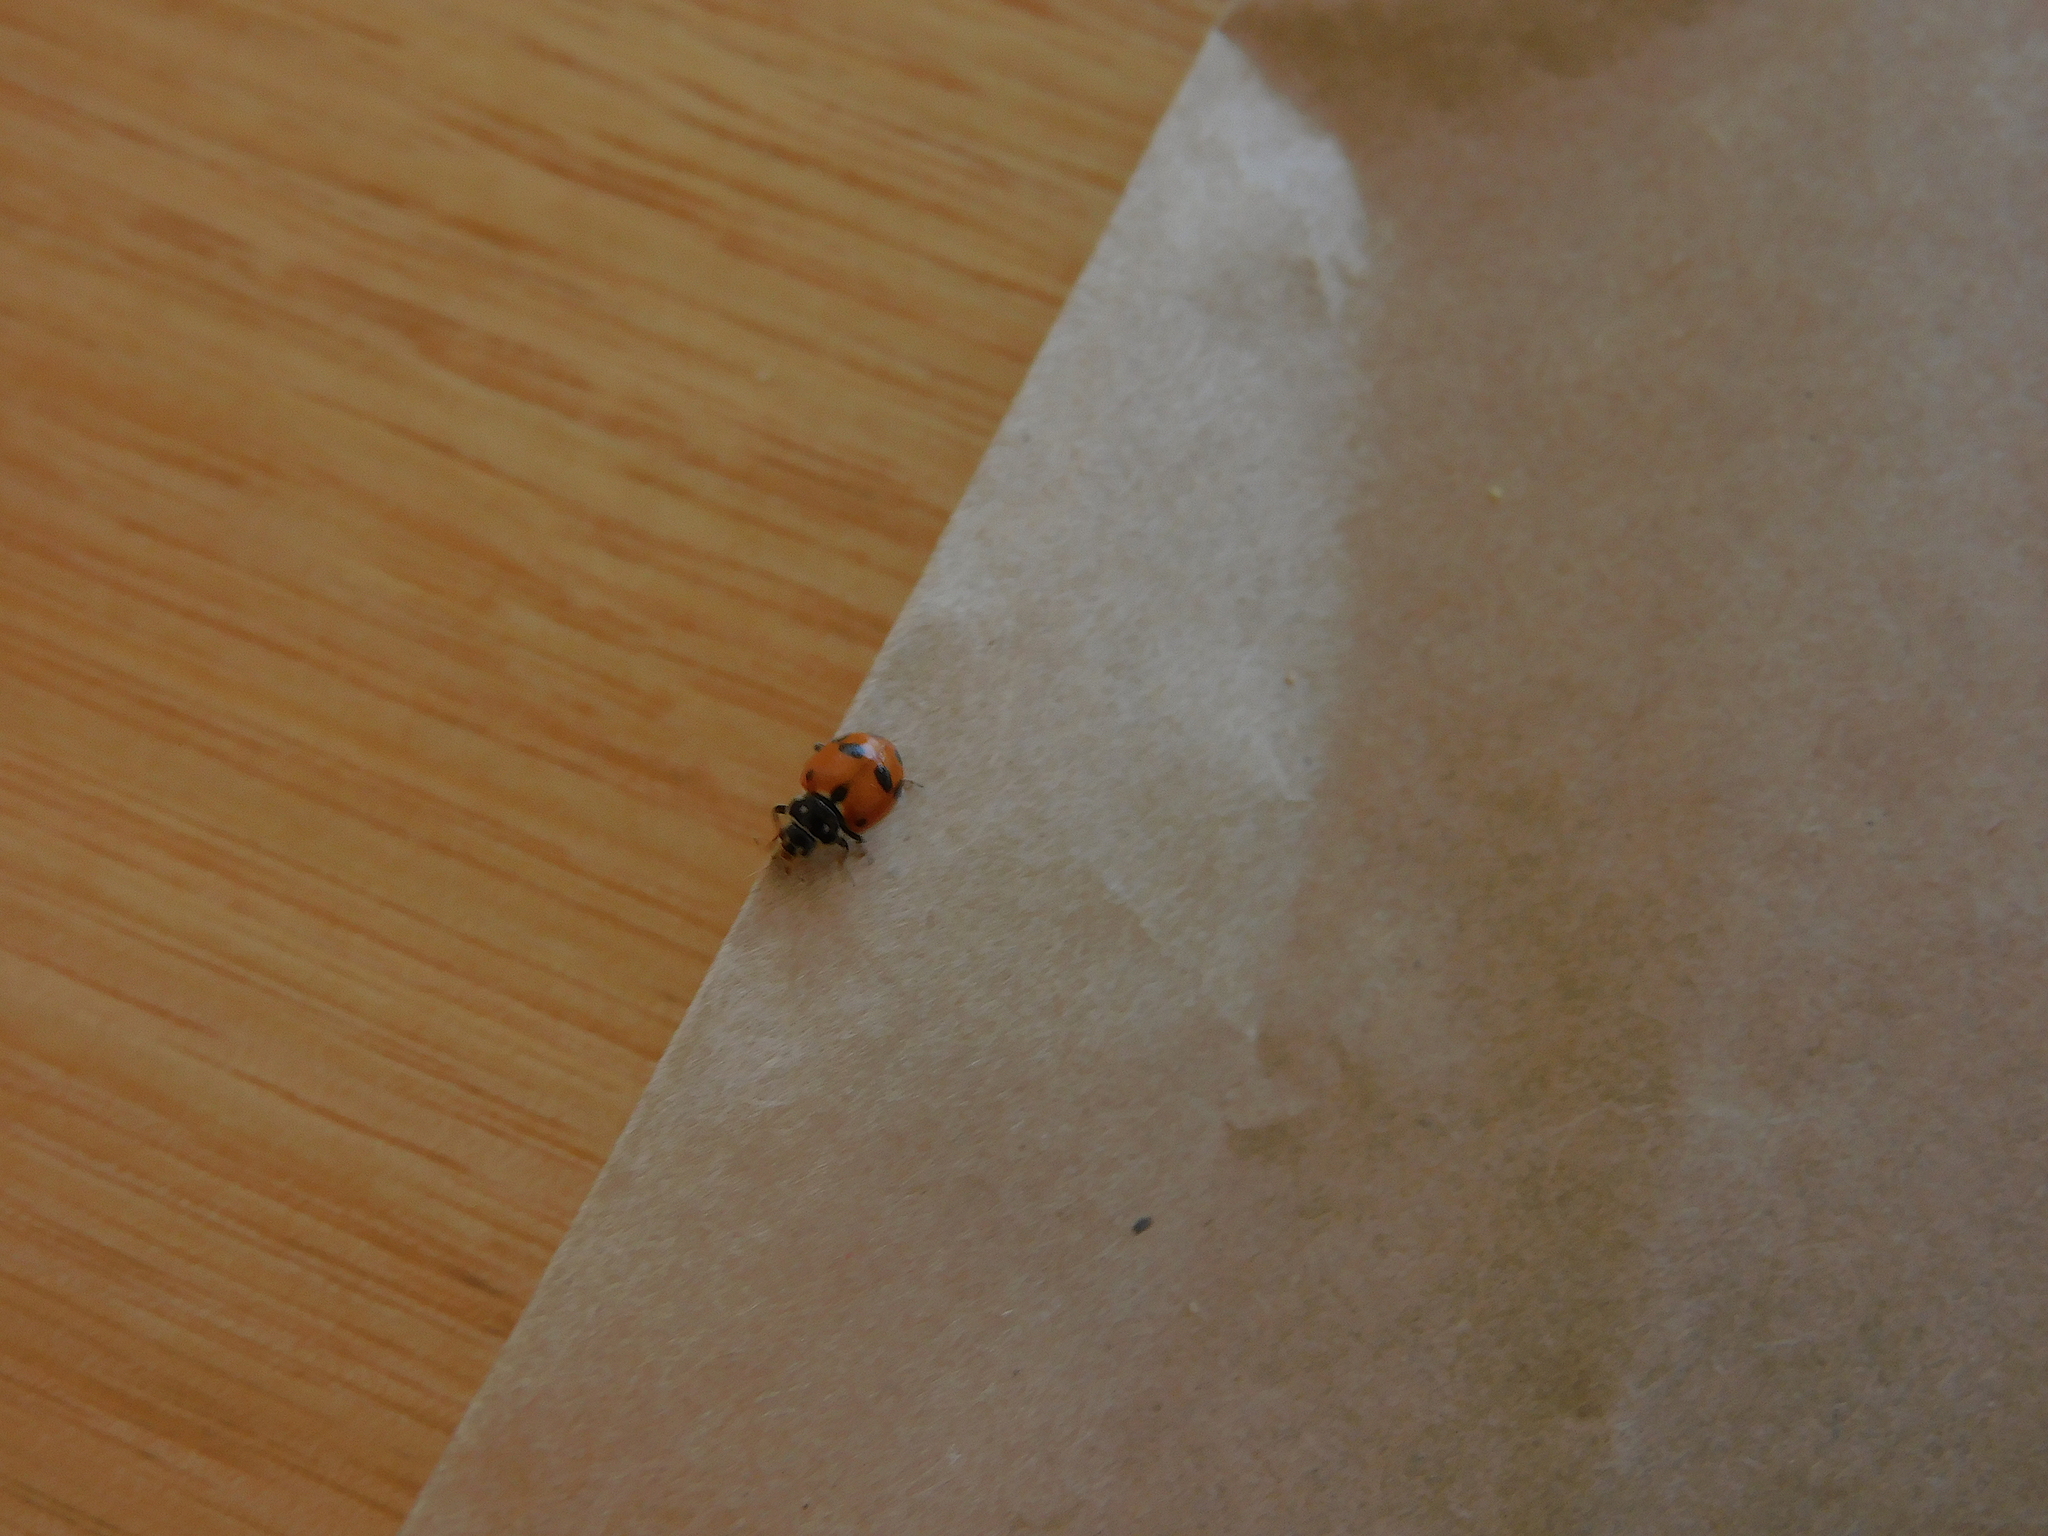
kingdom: Animalia
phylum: Arthropoda
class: Insecta
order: Coleoptera
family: Coccinellidae
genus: Hippodamia
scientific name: Hippodamia variegata
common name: Ladybird beetle
